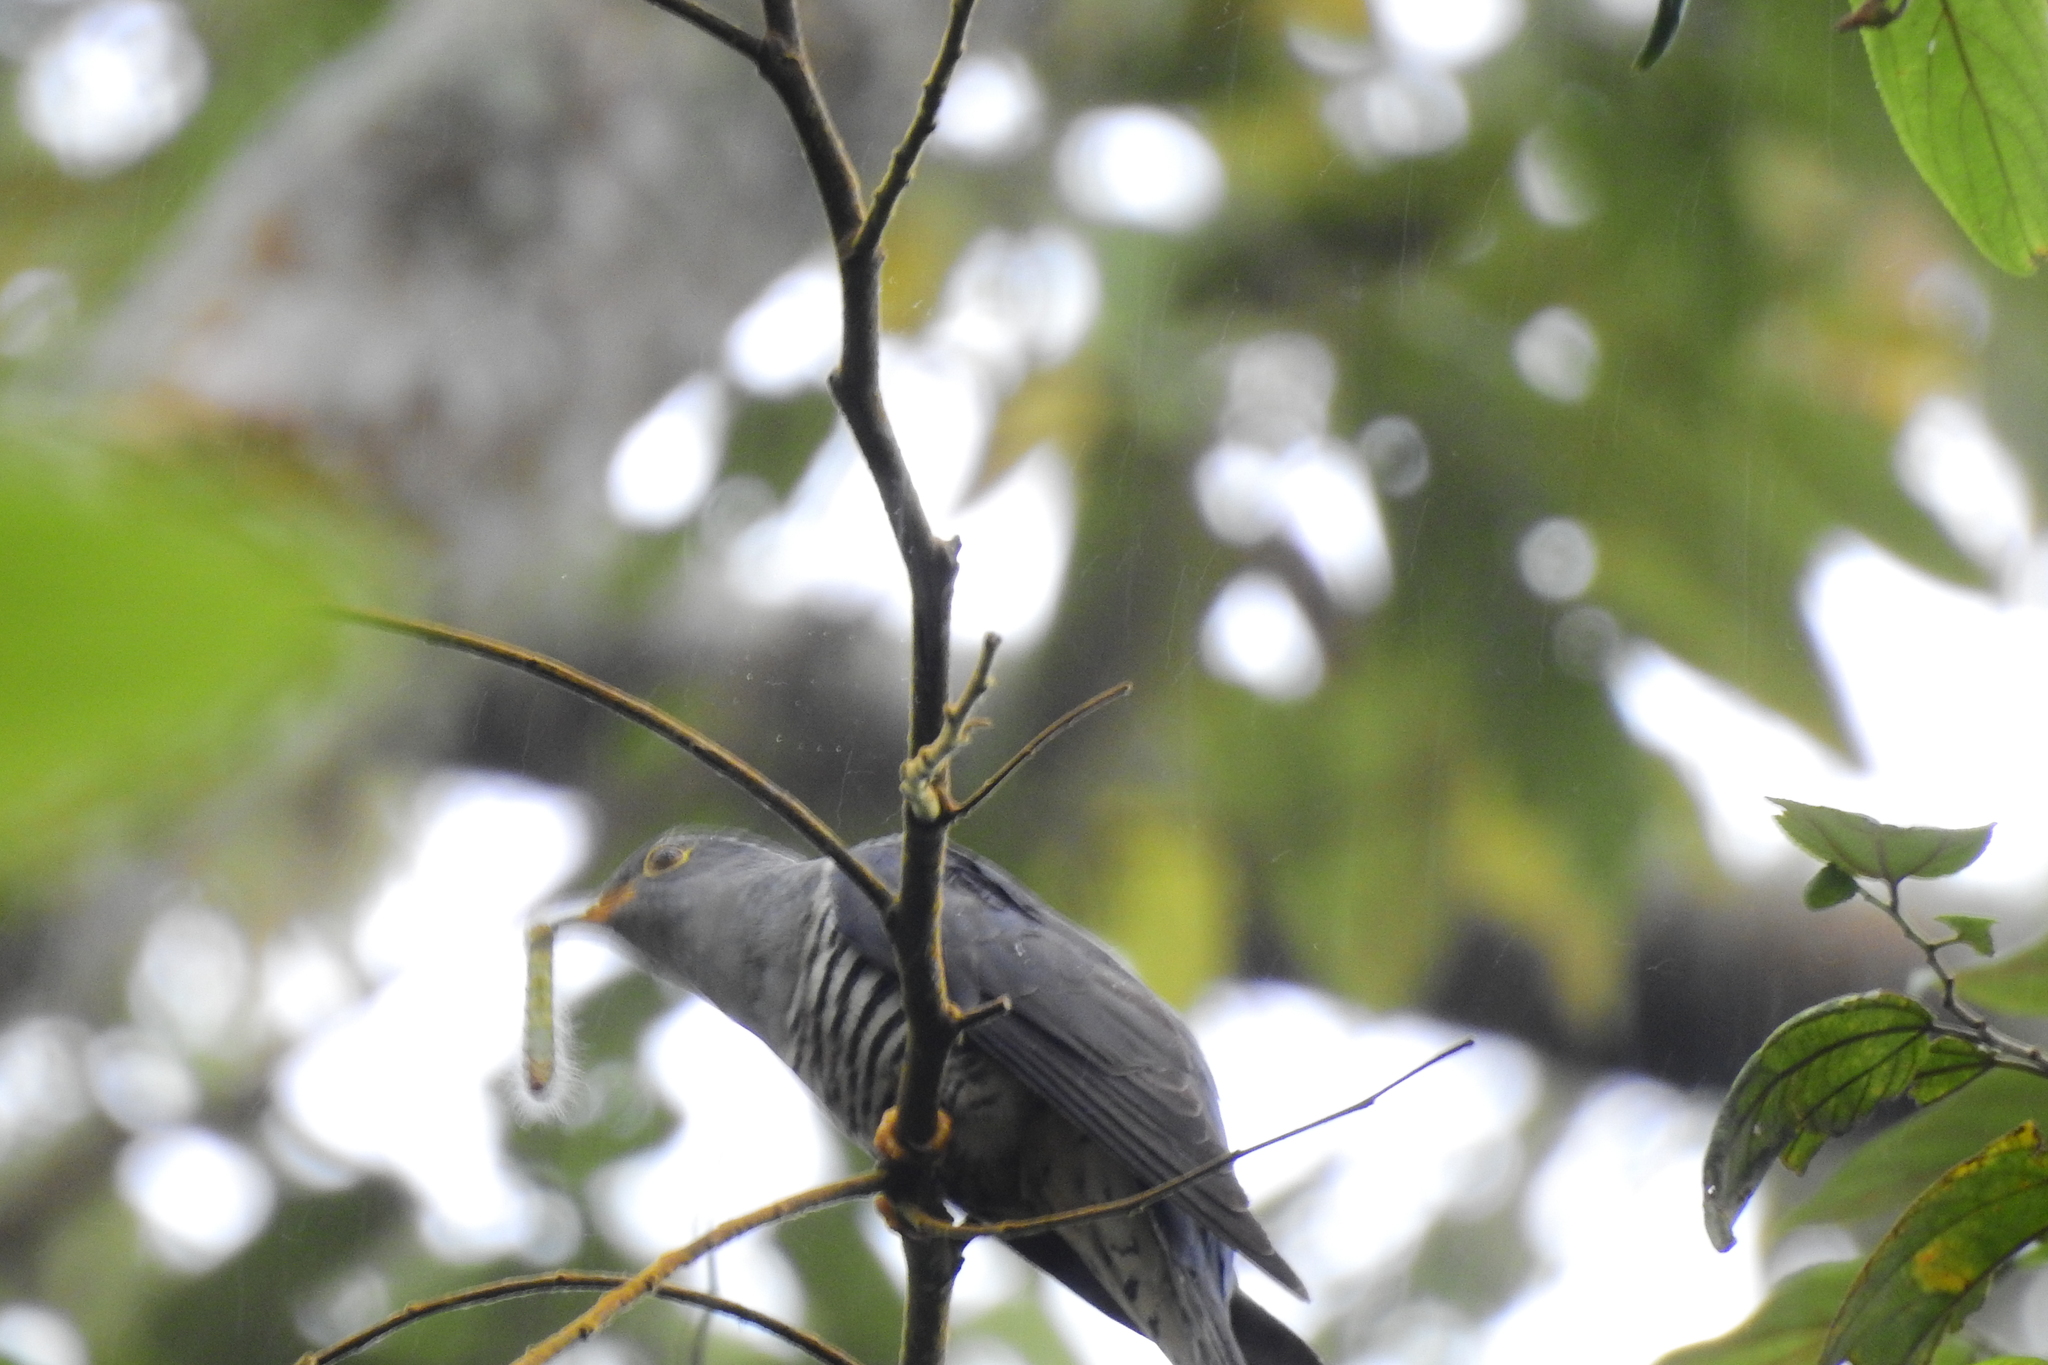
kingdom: Animalia
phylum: Chordata
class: Aves
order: Cuculiformes
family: Cuculidae
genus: Cuculus
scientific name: Cuculus lepidus
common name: Sunda cuckoo
